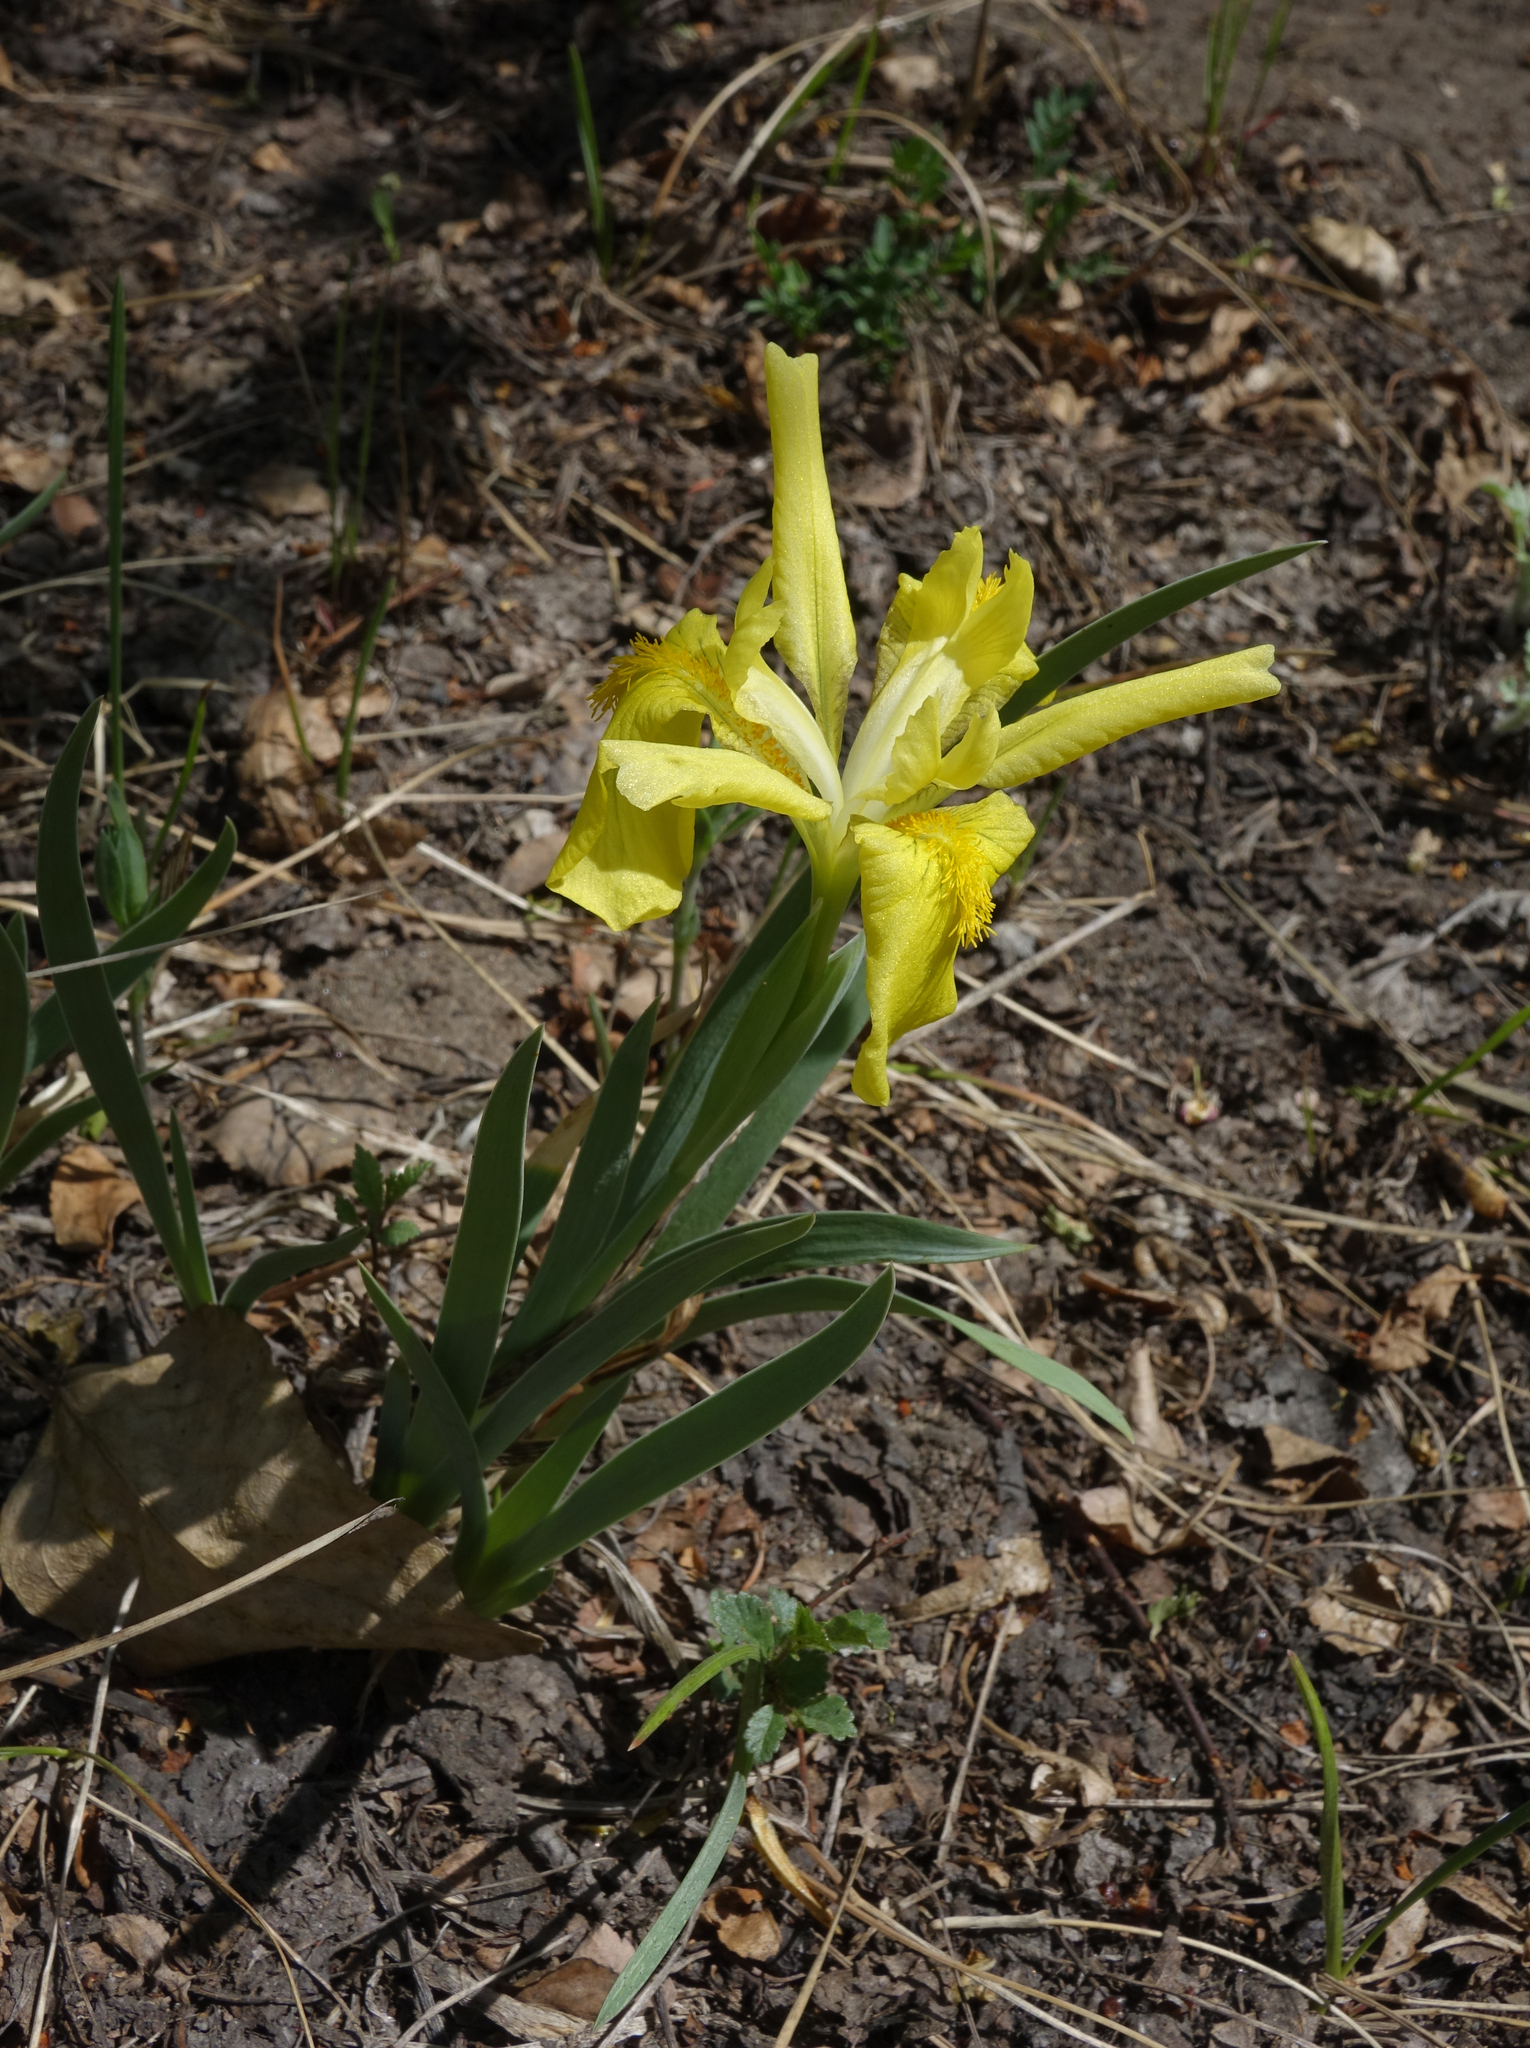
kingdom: Plantae
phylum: Tracheophyta
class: Liliopsida
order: Asparagales
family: Iridaceae
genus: Iris
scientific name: Iris humilis
